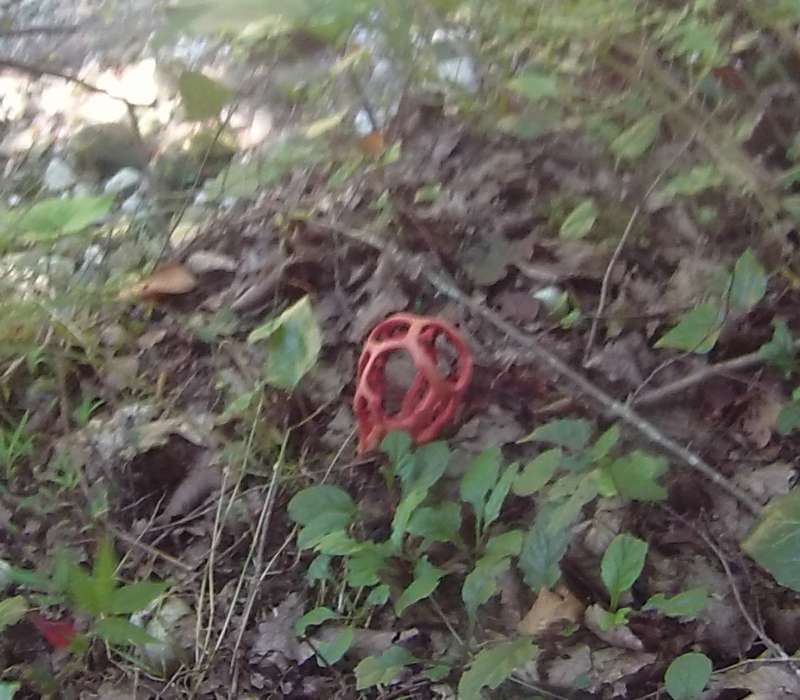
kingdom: Fungi
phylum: Basidiomycota
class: Agaricomycetes
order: Phallales
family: Phallaceae
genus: Clathrus
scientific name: Clathrus ruber
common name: Red cage
